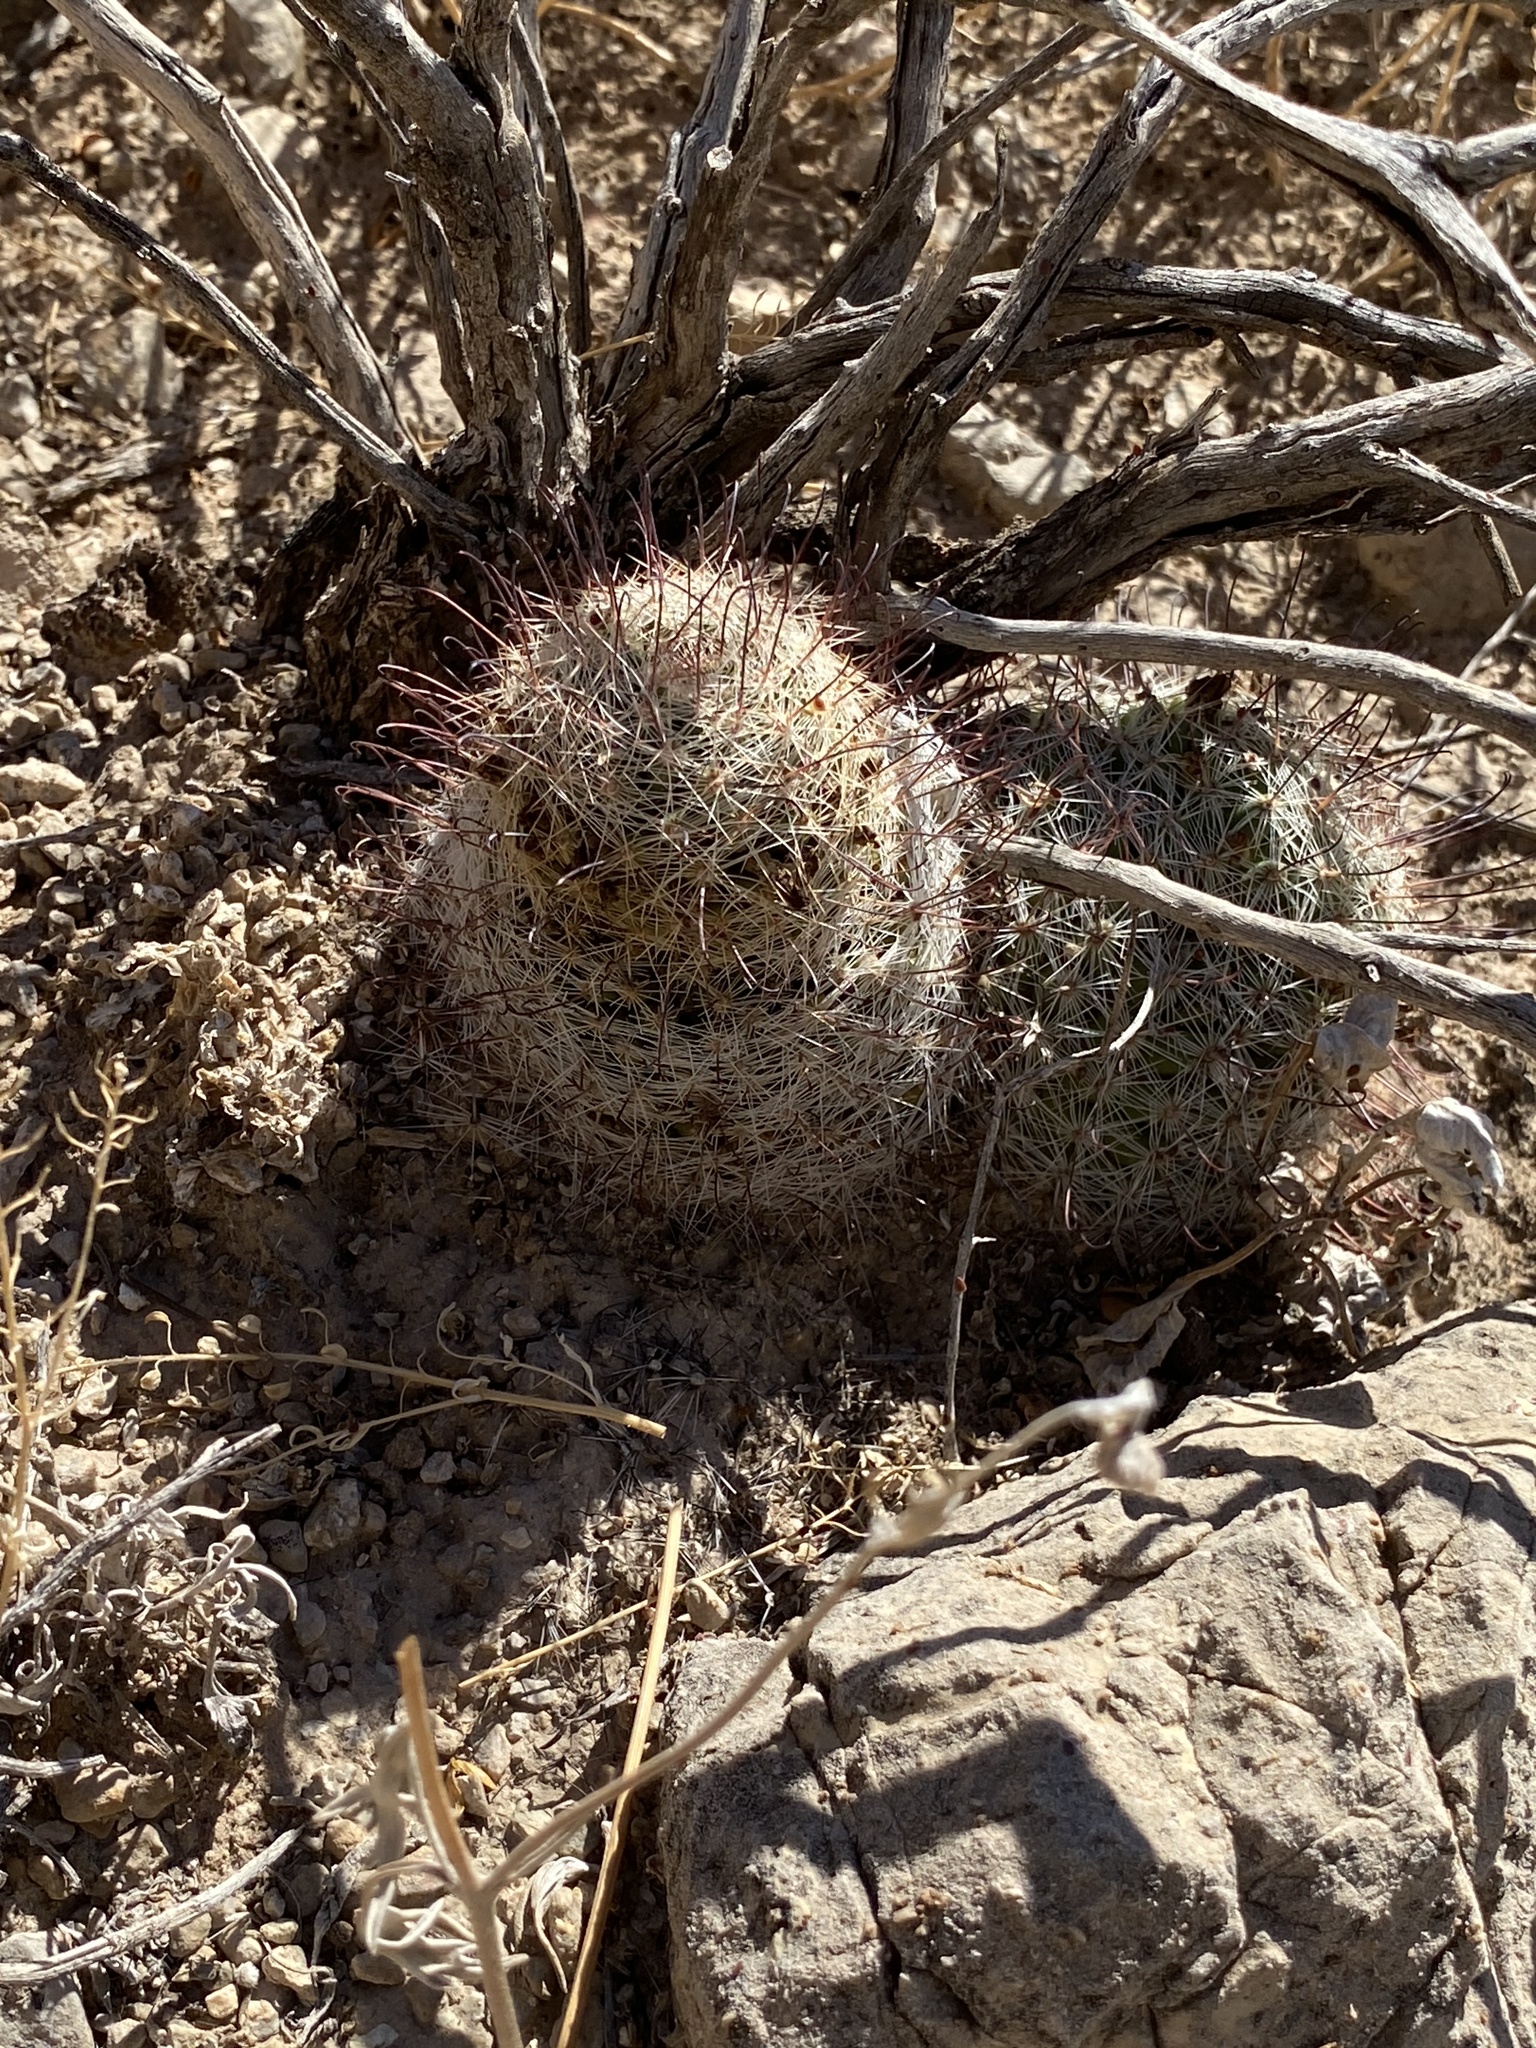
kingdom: Plantae
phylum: Tracheophyta
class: Magnoliopsida
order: Caryophyllales
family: Cactaceae
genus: Cochemiea
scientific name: Cochemiea grahamii
